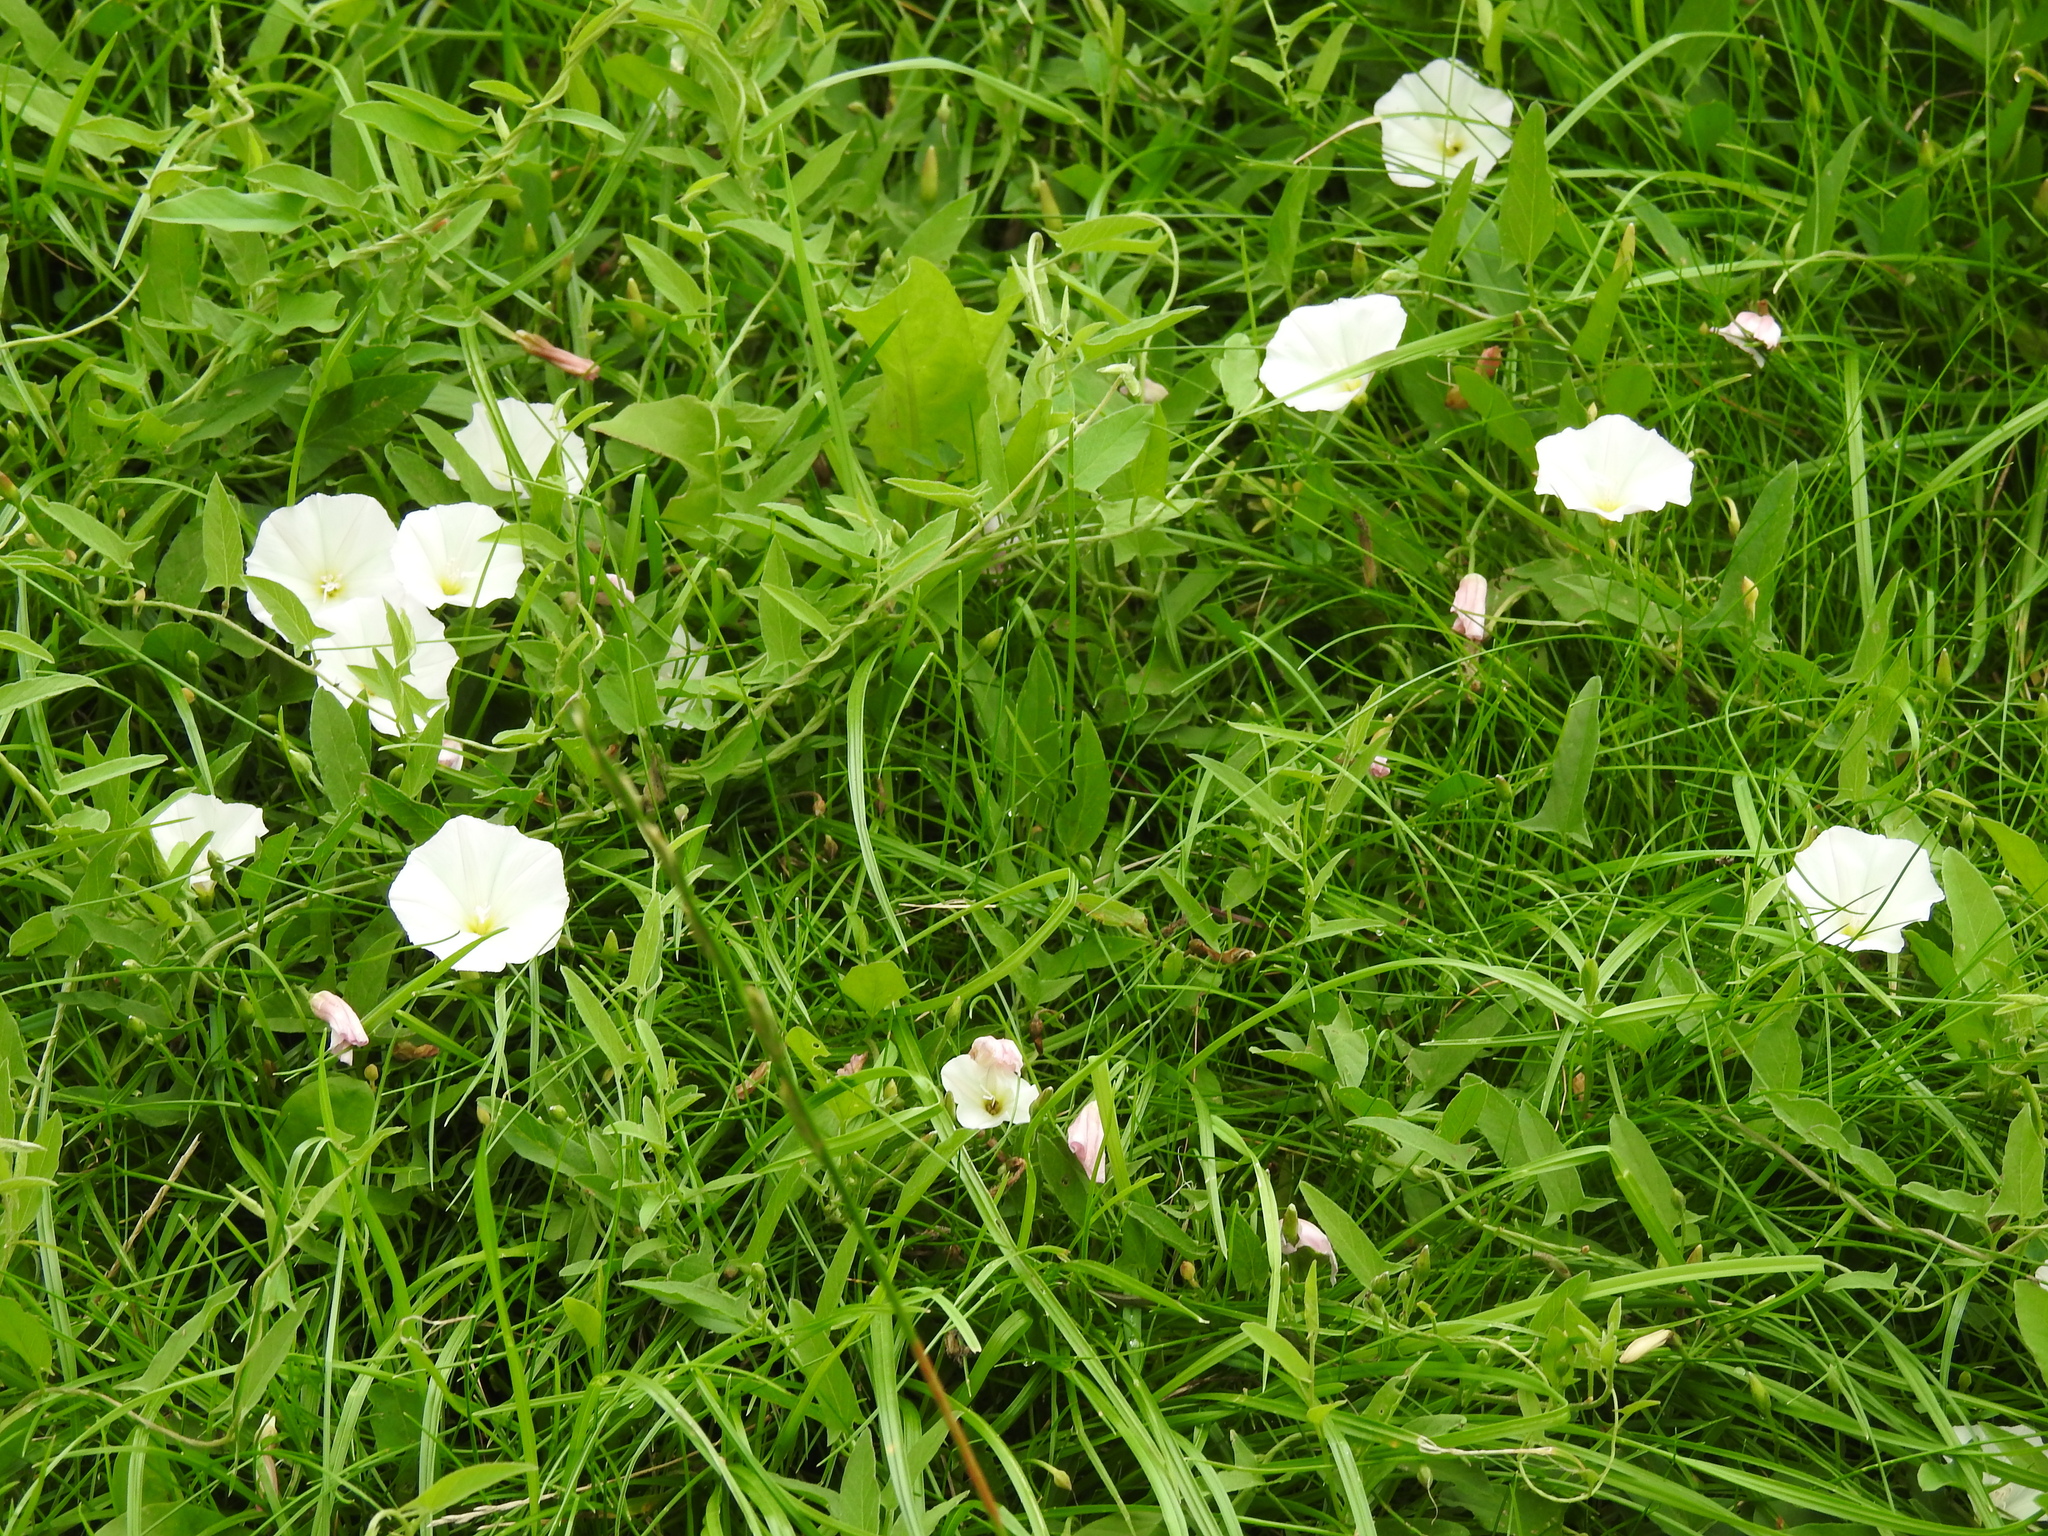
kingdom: Plantae
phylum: Tracheophyta
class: Magnoliopsida
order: Solanales
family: Convolvulaceae
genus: Convolvulus
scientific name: Convolvulus arvensis
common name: Field bindweed
